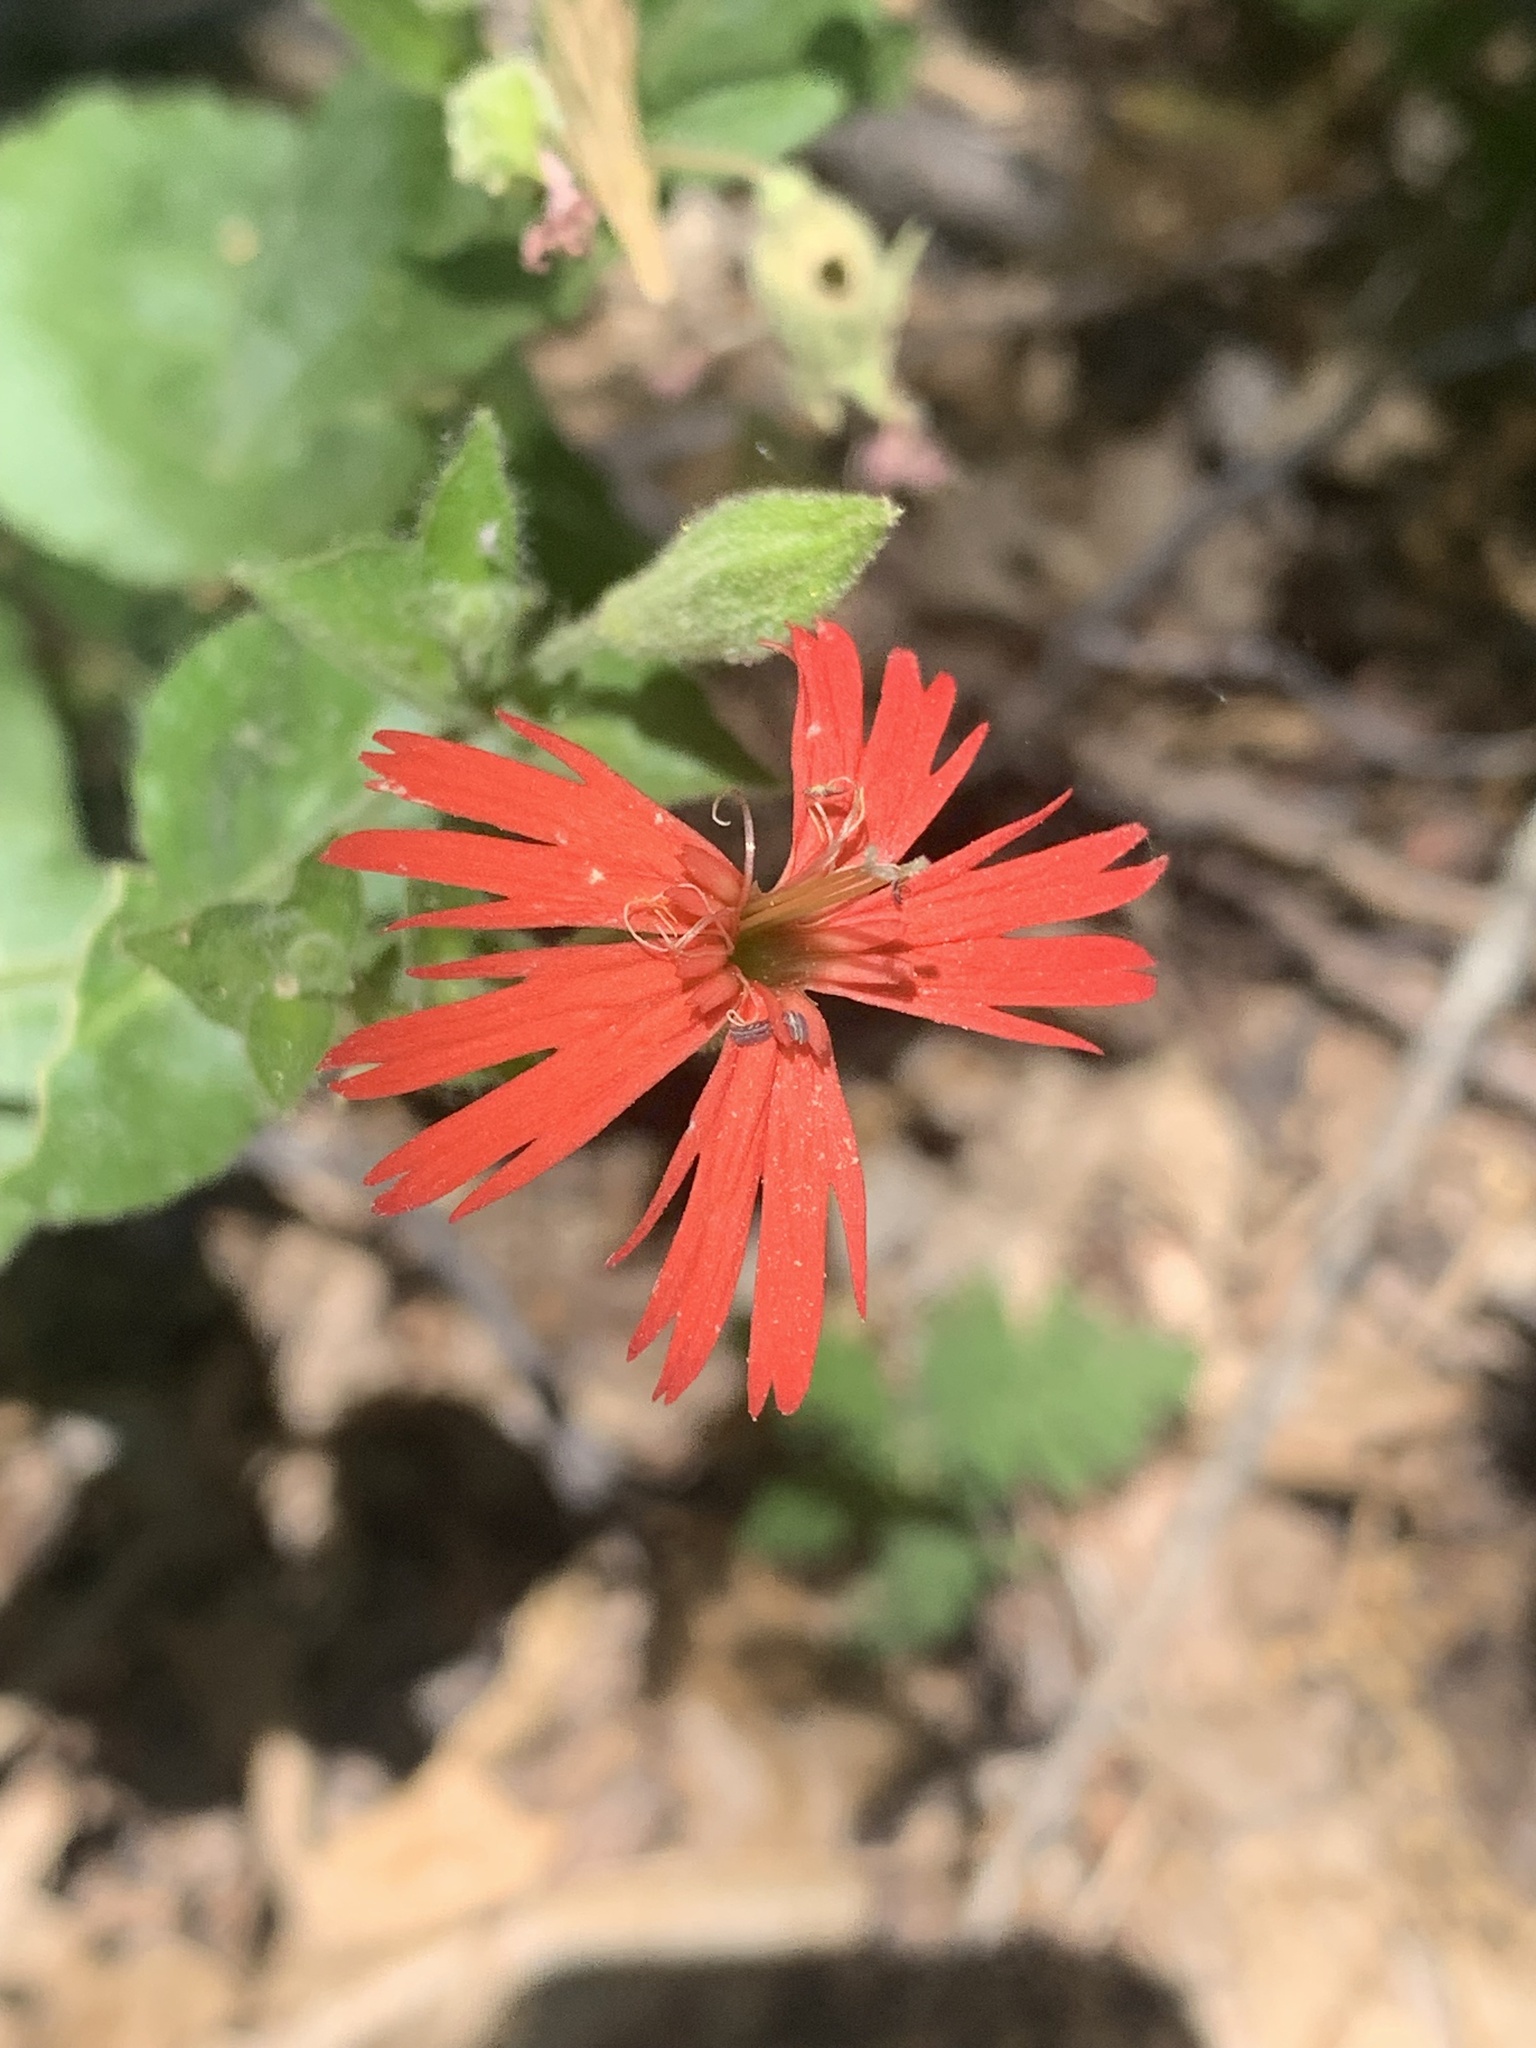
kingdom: Plantae
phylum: Tracheophyta
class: Magnoliopsida
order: Caryophyllales
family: Caryophyllaceae
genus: Silene
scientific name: Silene laciniata
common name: Indian-pink
